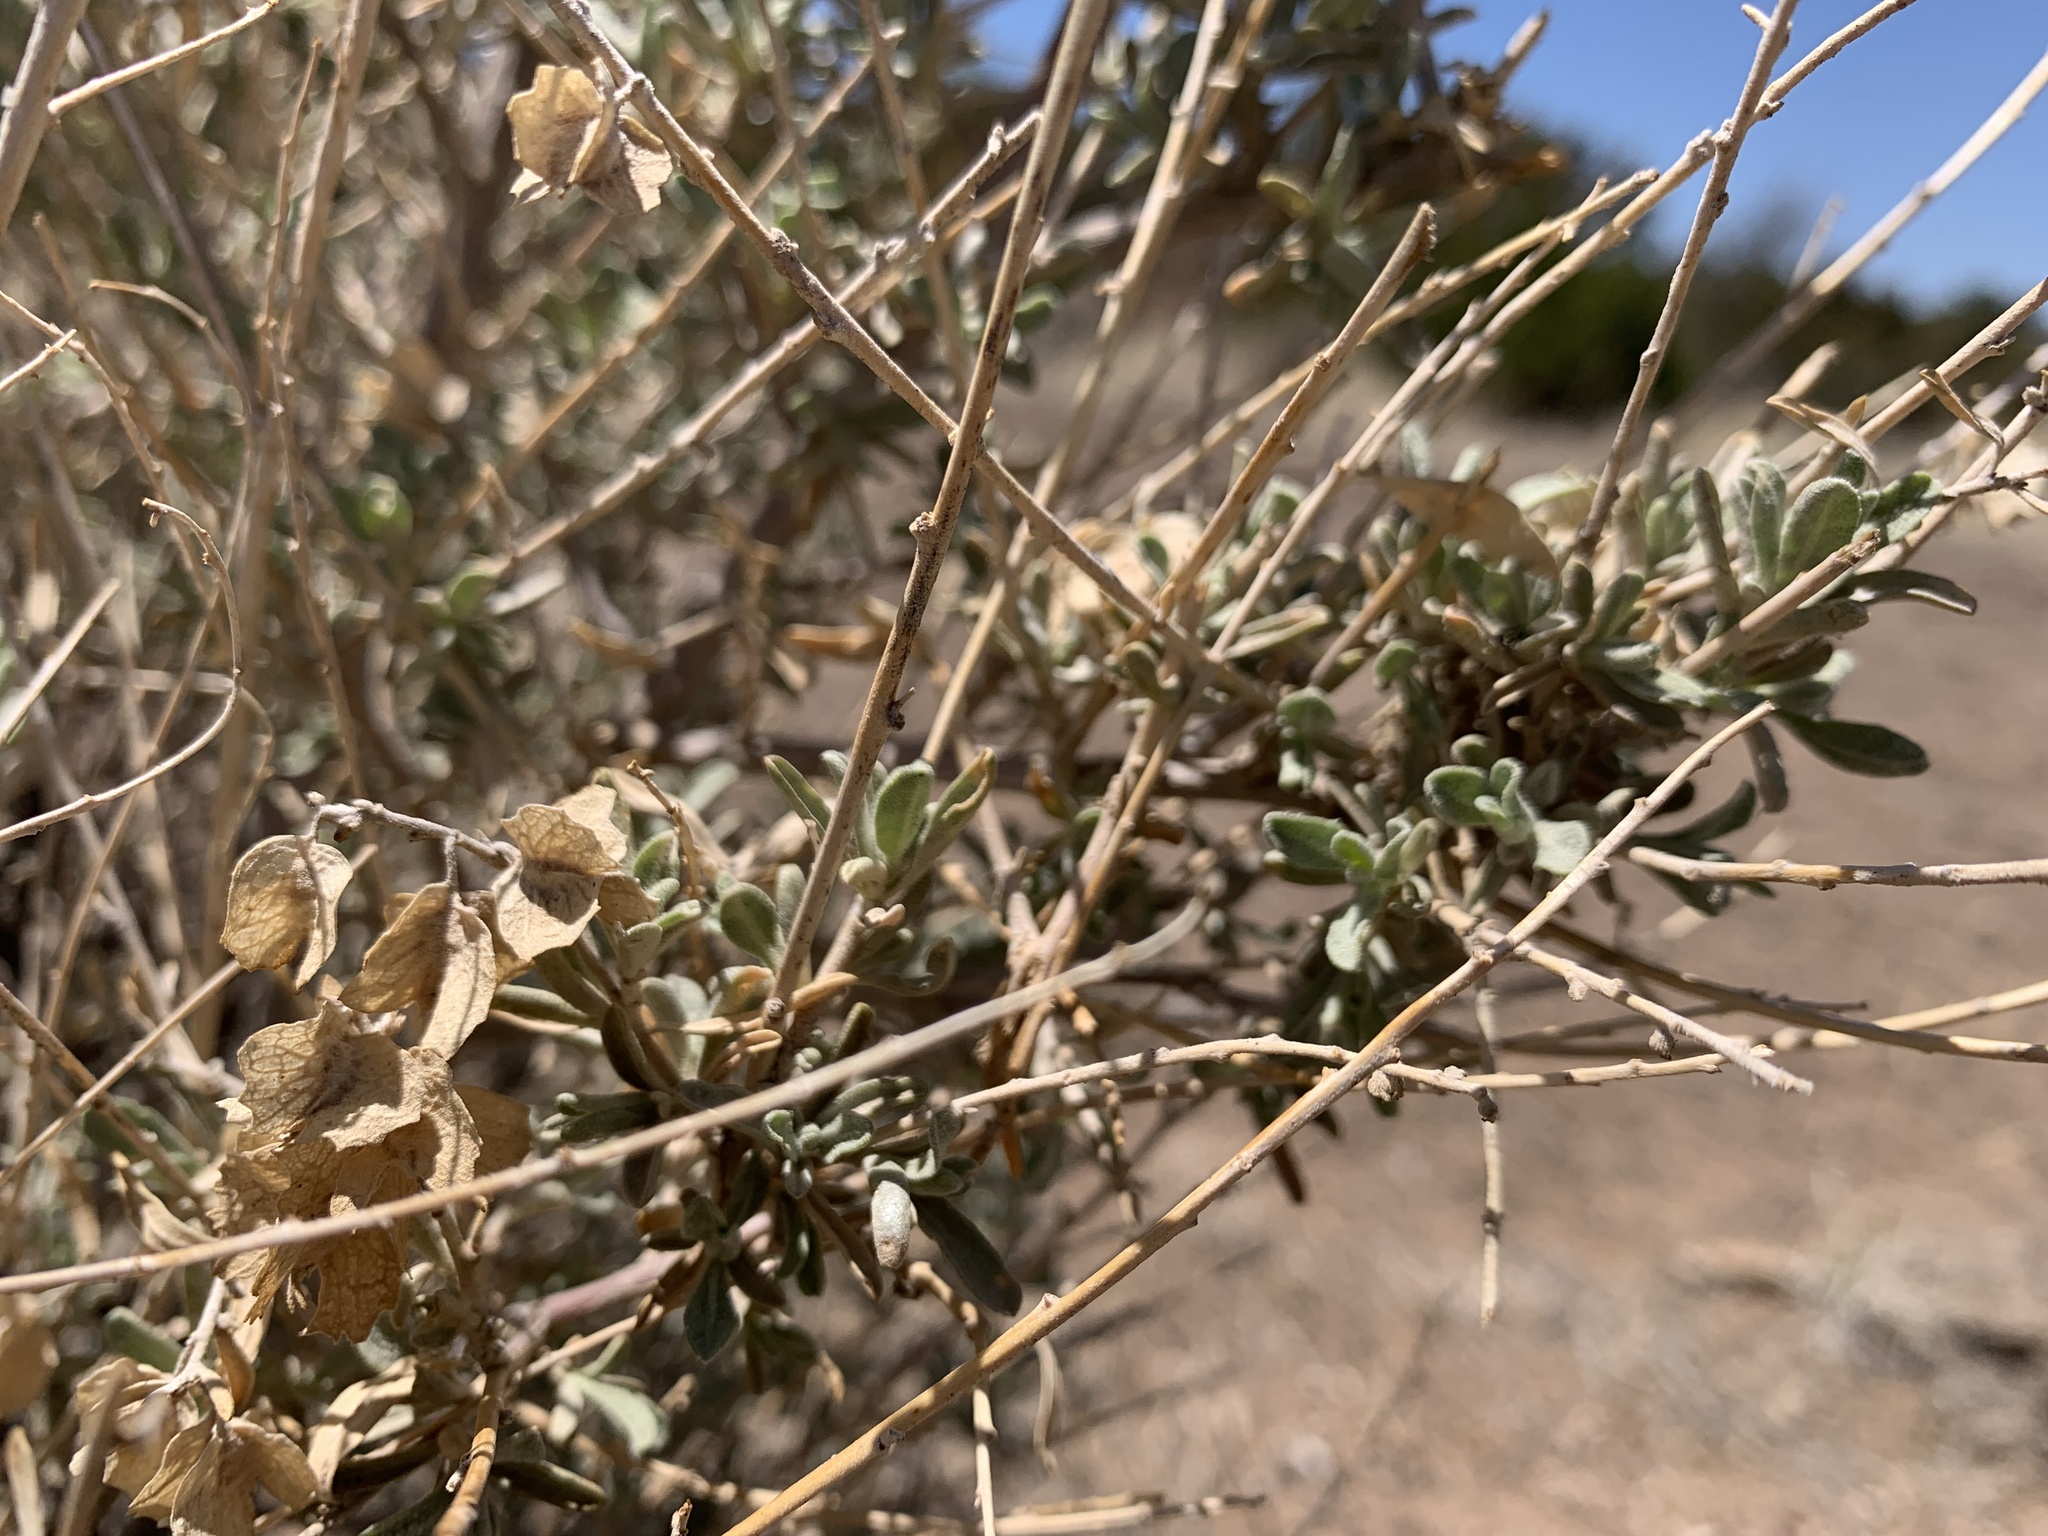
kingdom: Plantae
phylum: Tracheophyta
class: Magnoliopsida
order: Caryophyllales
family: Amaranthaceae
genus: Atriplex
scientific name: Atriplex canescens
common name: Four-wing saltbush
